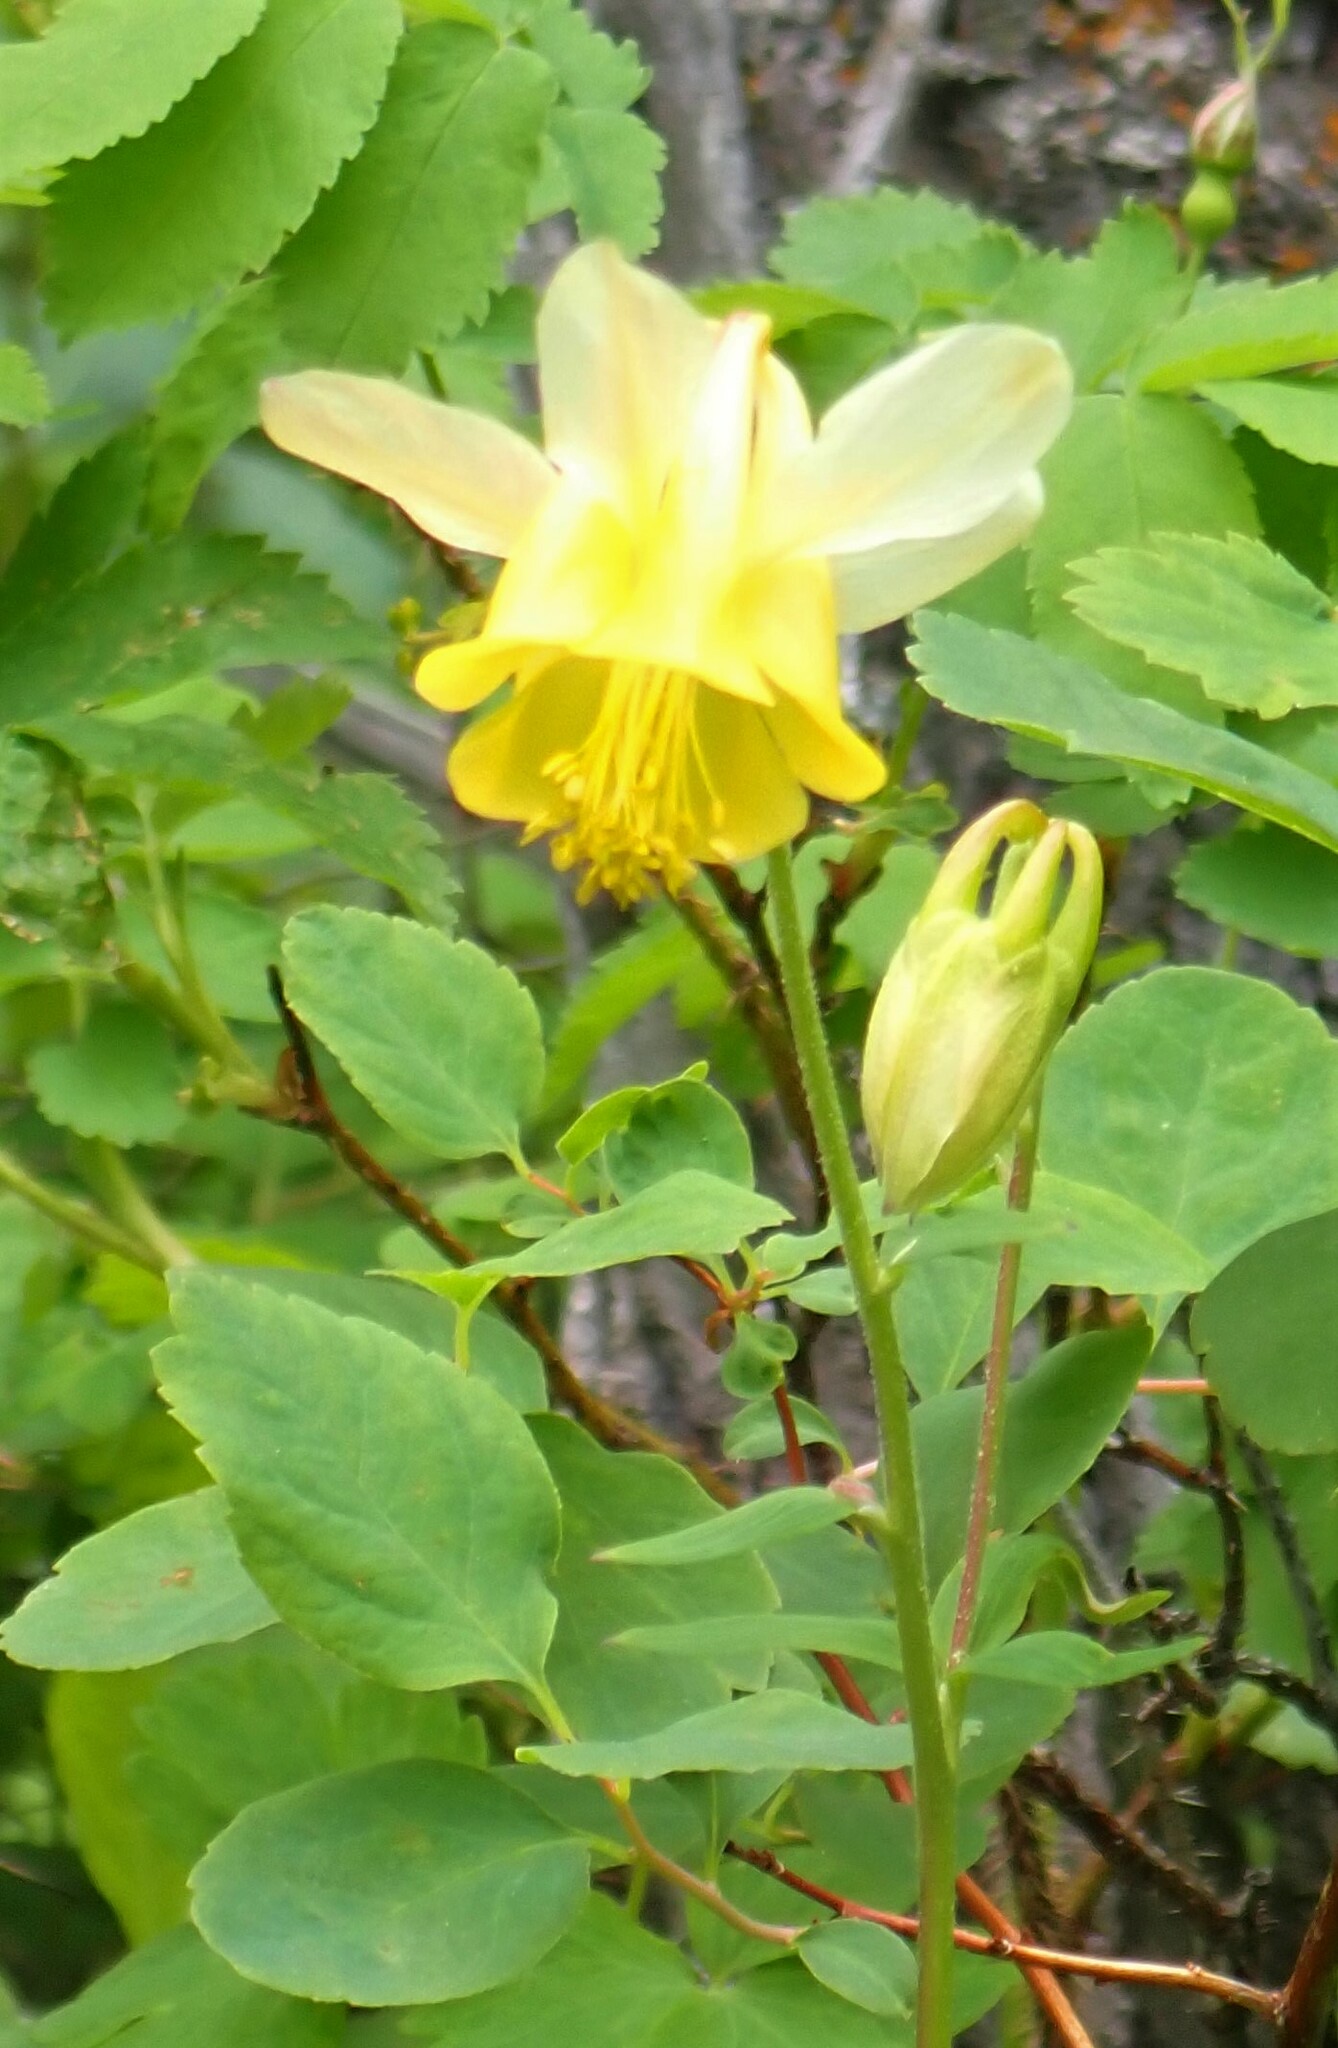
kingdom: Plantae
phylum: Tracheophyta
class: Magnoliopsida
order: Ranunculales
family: Ranunculaceae
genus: Aquilegia
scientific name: Aquilegia flavescens
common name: Yellow columbine
